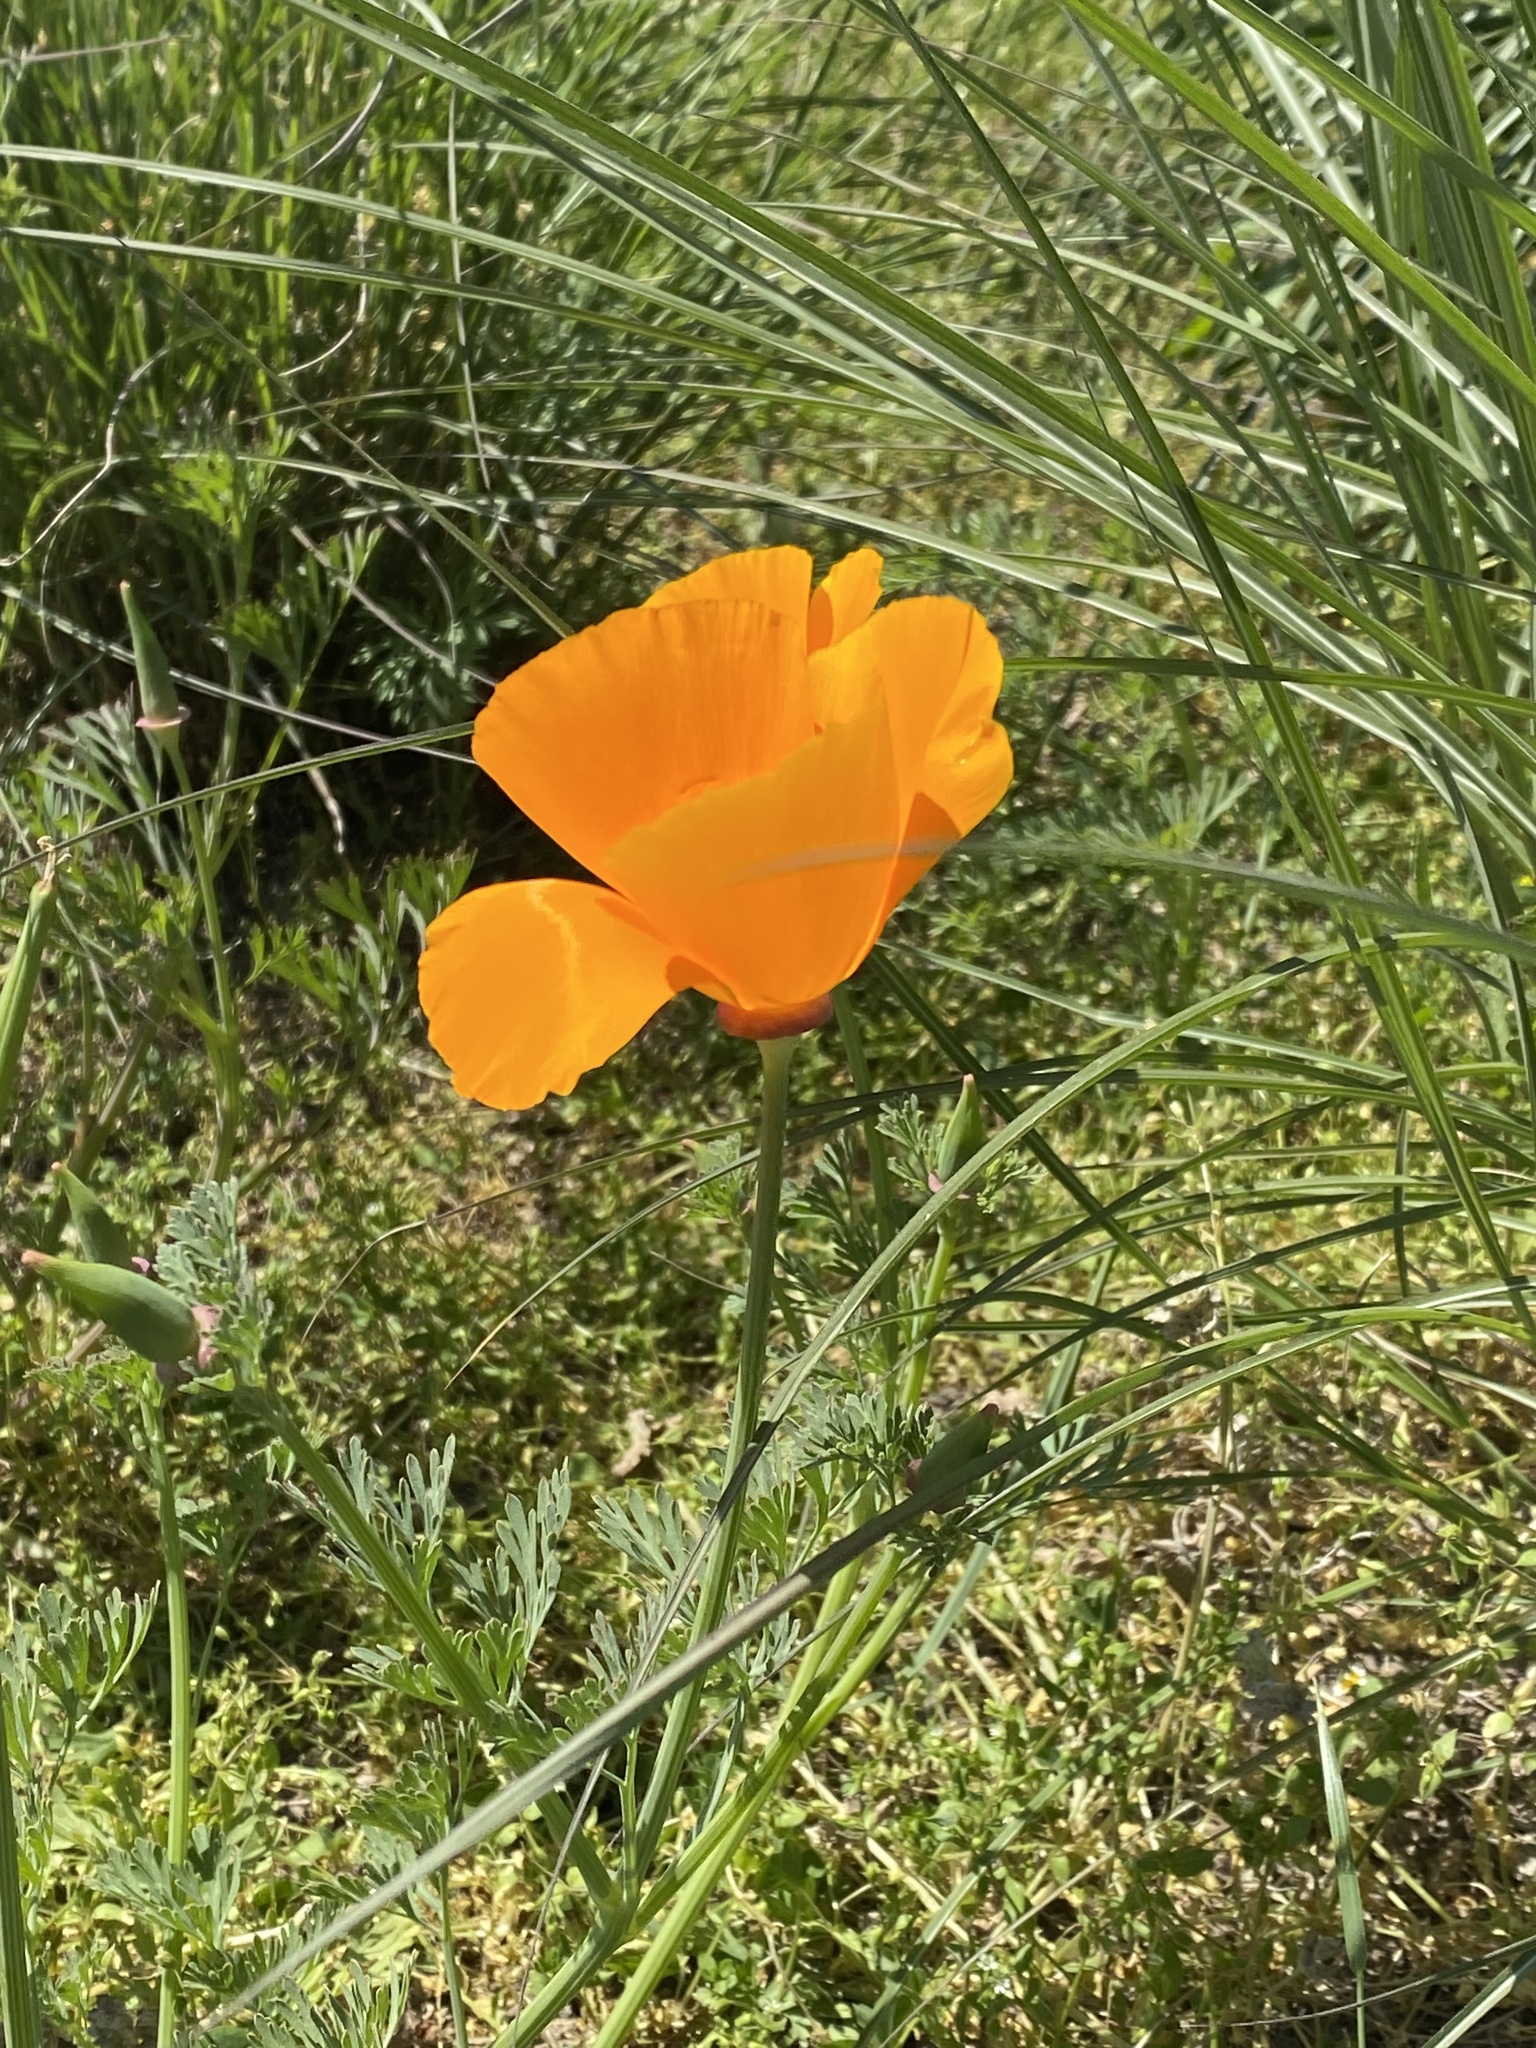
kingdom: Plantae
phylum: Tracheophyta
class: Magnoliopsida
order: Ranunculales
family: Papaveraceae
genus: Eschscholzia
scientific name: Eschscholzia californica
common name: California poppy
